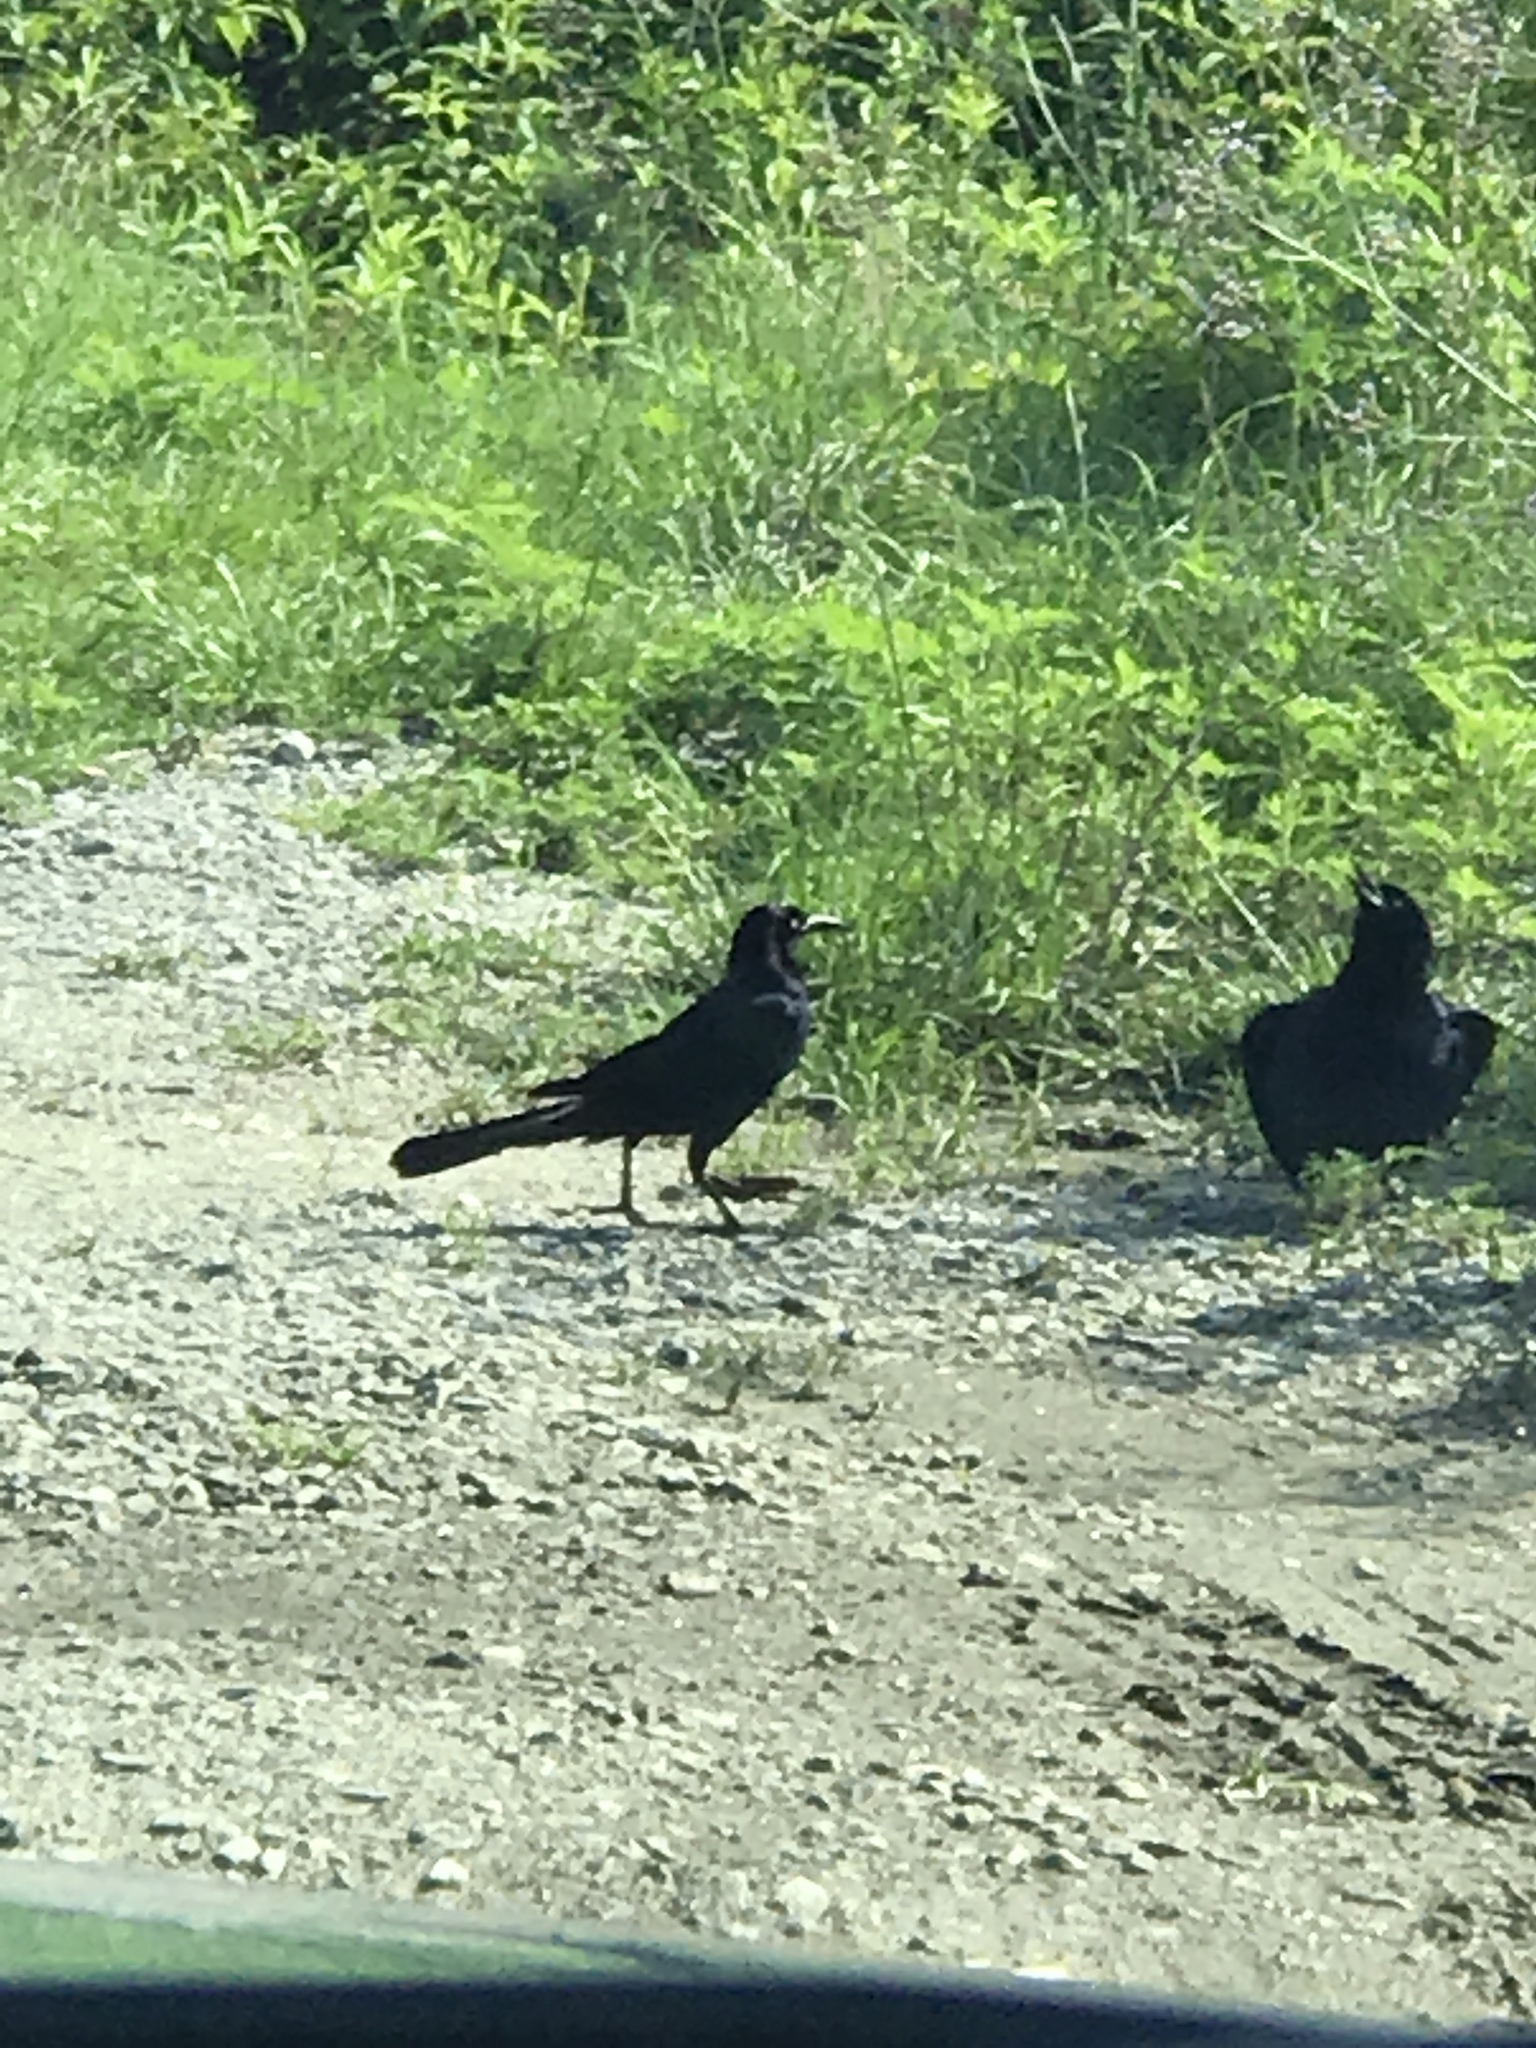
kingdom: Animalia
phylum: Chordata
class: Aves
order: Passeriformes
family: Icteridae
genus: Quiscalus
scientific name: Quiscalus major
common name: Boat-tailed grackle
